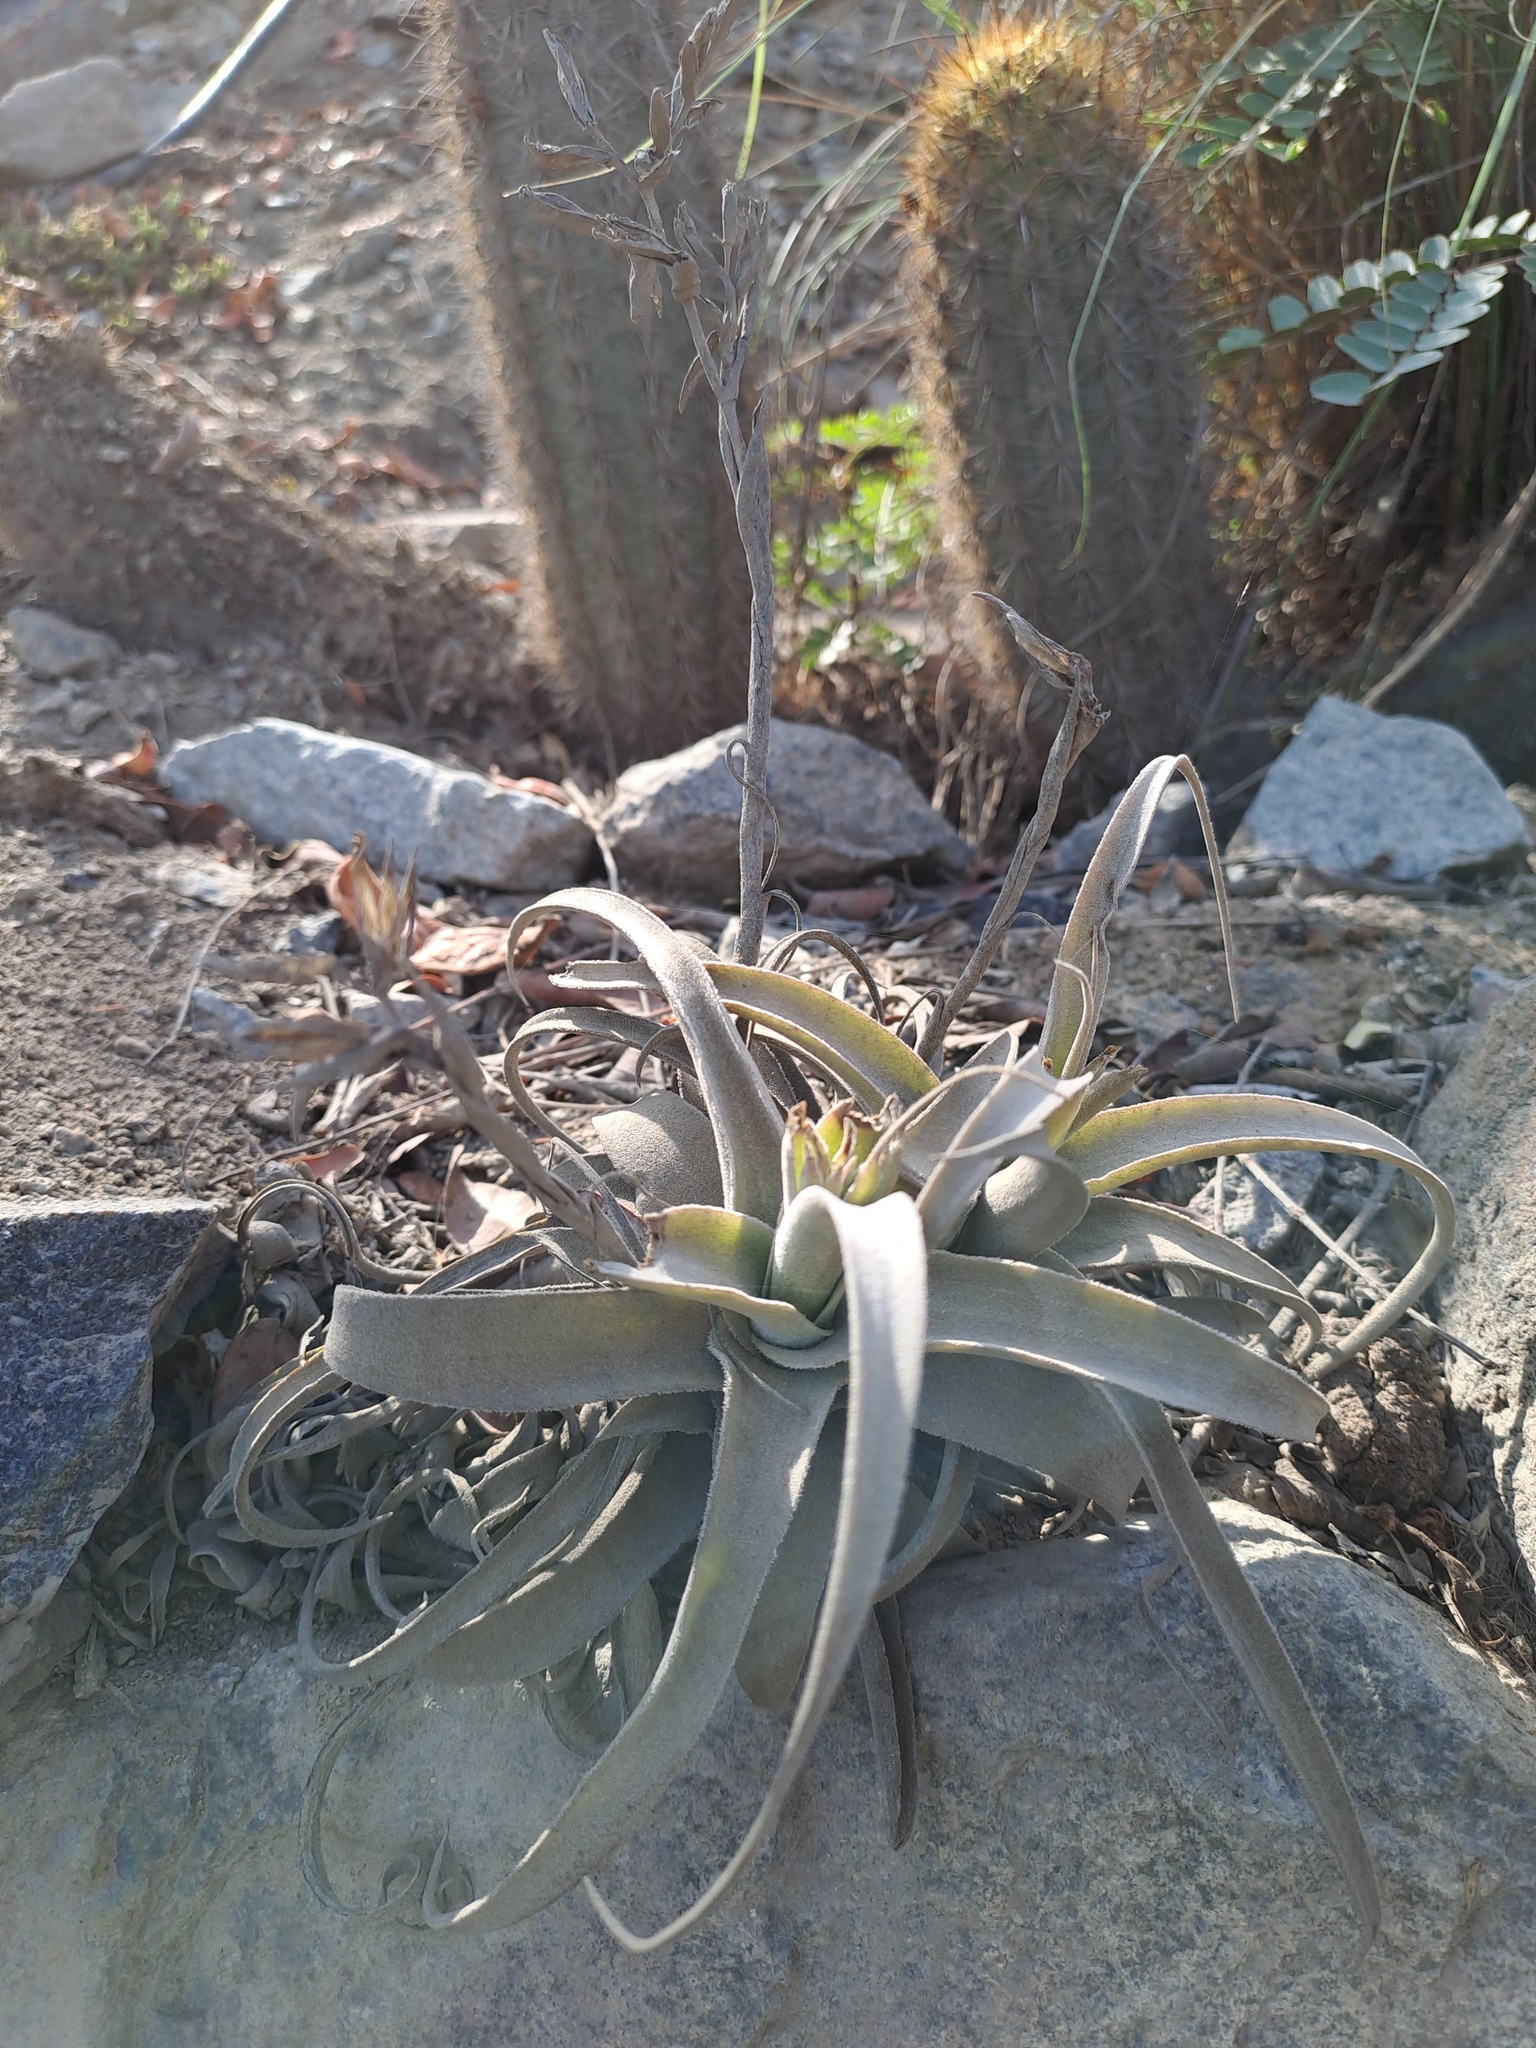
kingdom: Plantae
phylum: Tracheophyta
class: Liliopsida
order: Poales
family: Bromeliaceae
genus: Tillandsia
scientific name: Tillandsia purpurea
